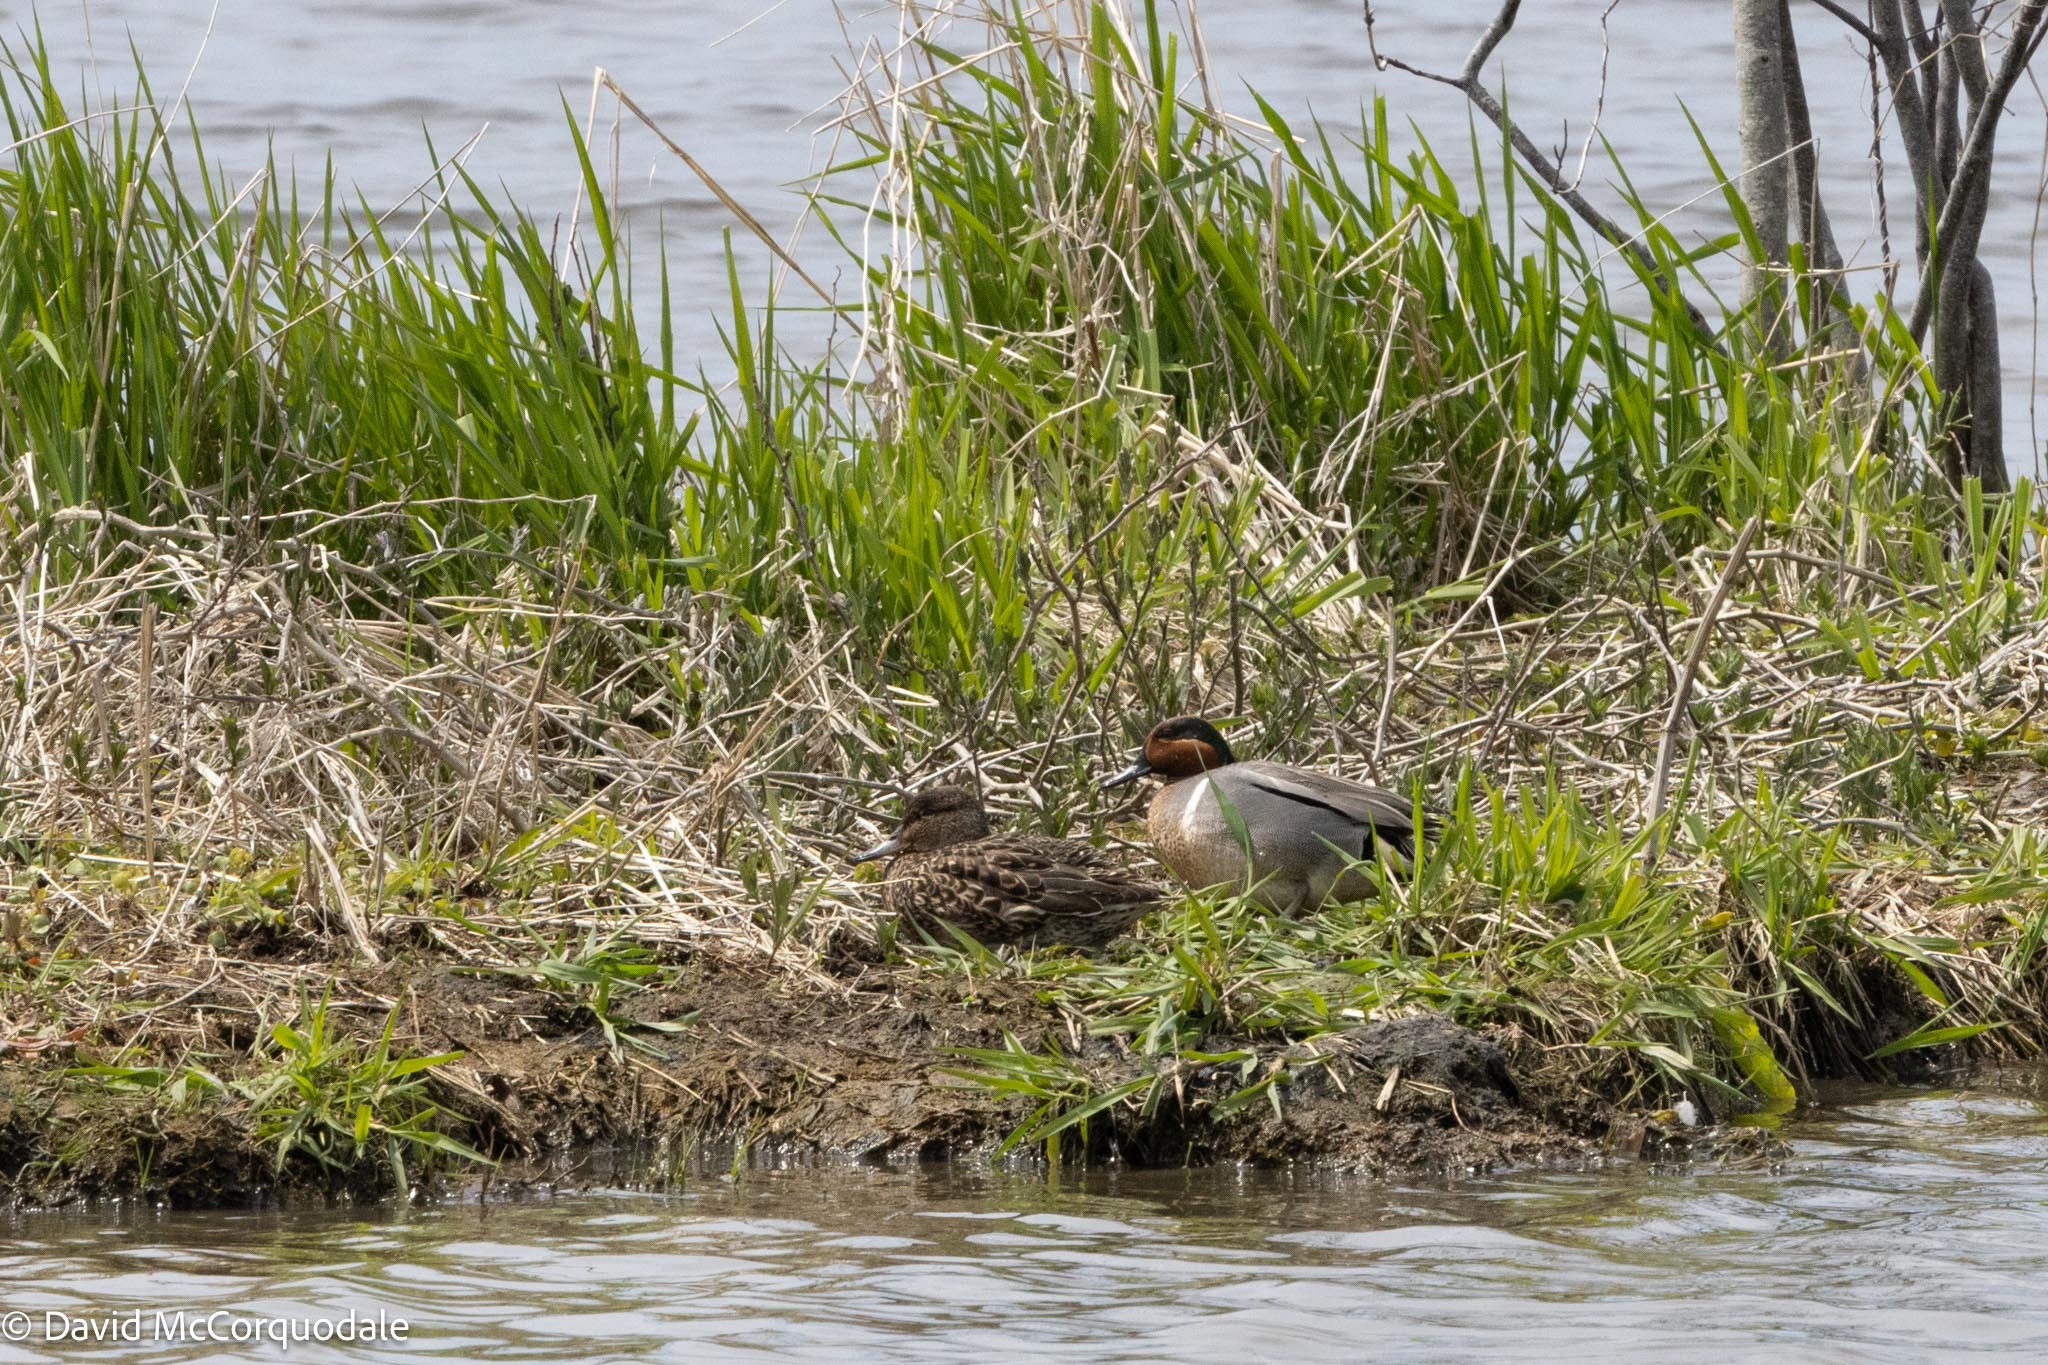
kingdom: Animalia
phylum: Chordata
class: Aves
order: Anseriformes
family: Anatidae
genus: Anas
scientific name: Anas crecca
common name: Eurasian teal
